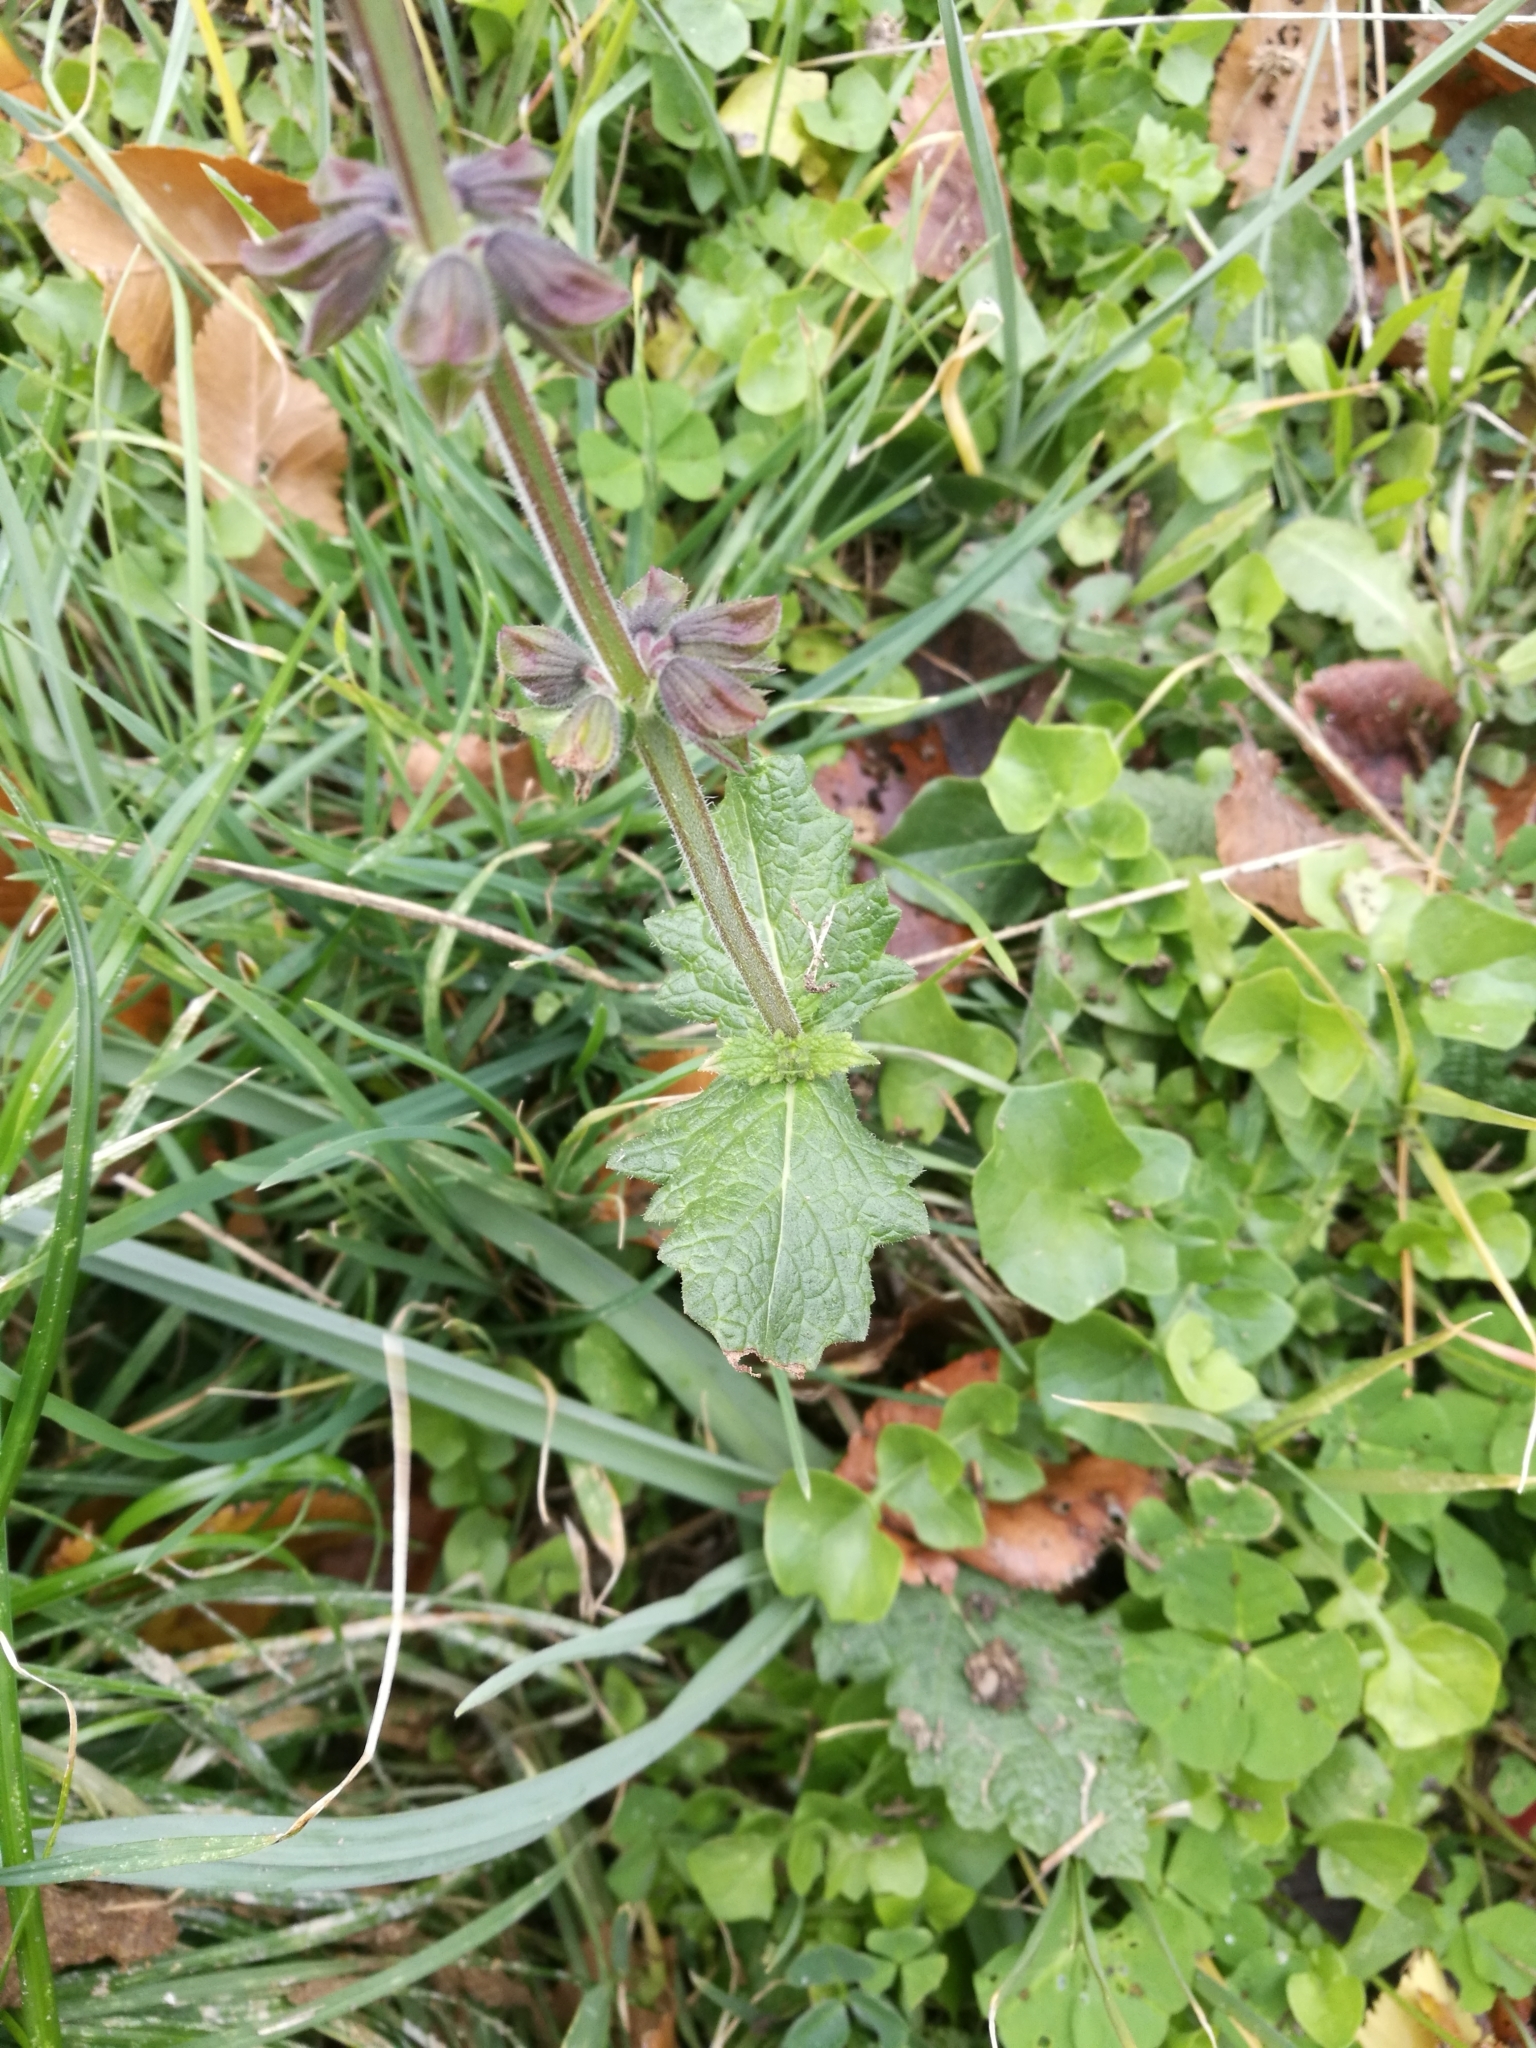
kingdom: Plantae
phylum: Tracheophyta
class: Magnoliopsida
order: Lamiales
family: Lamiaceae
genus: Salvia
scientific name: Salvia verbenaca
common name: Wild clary
